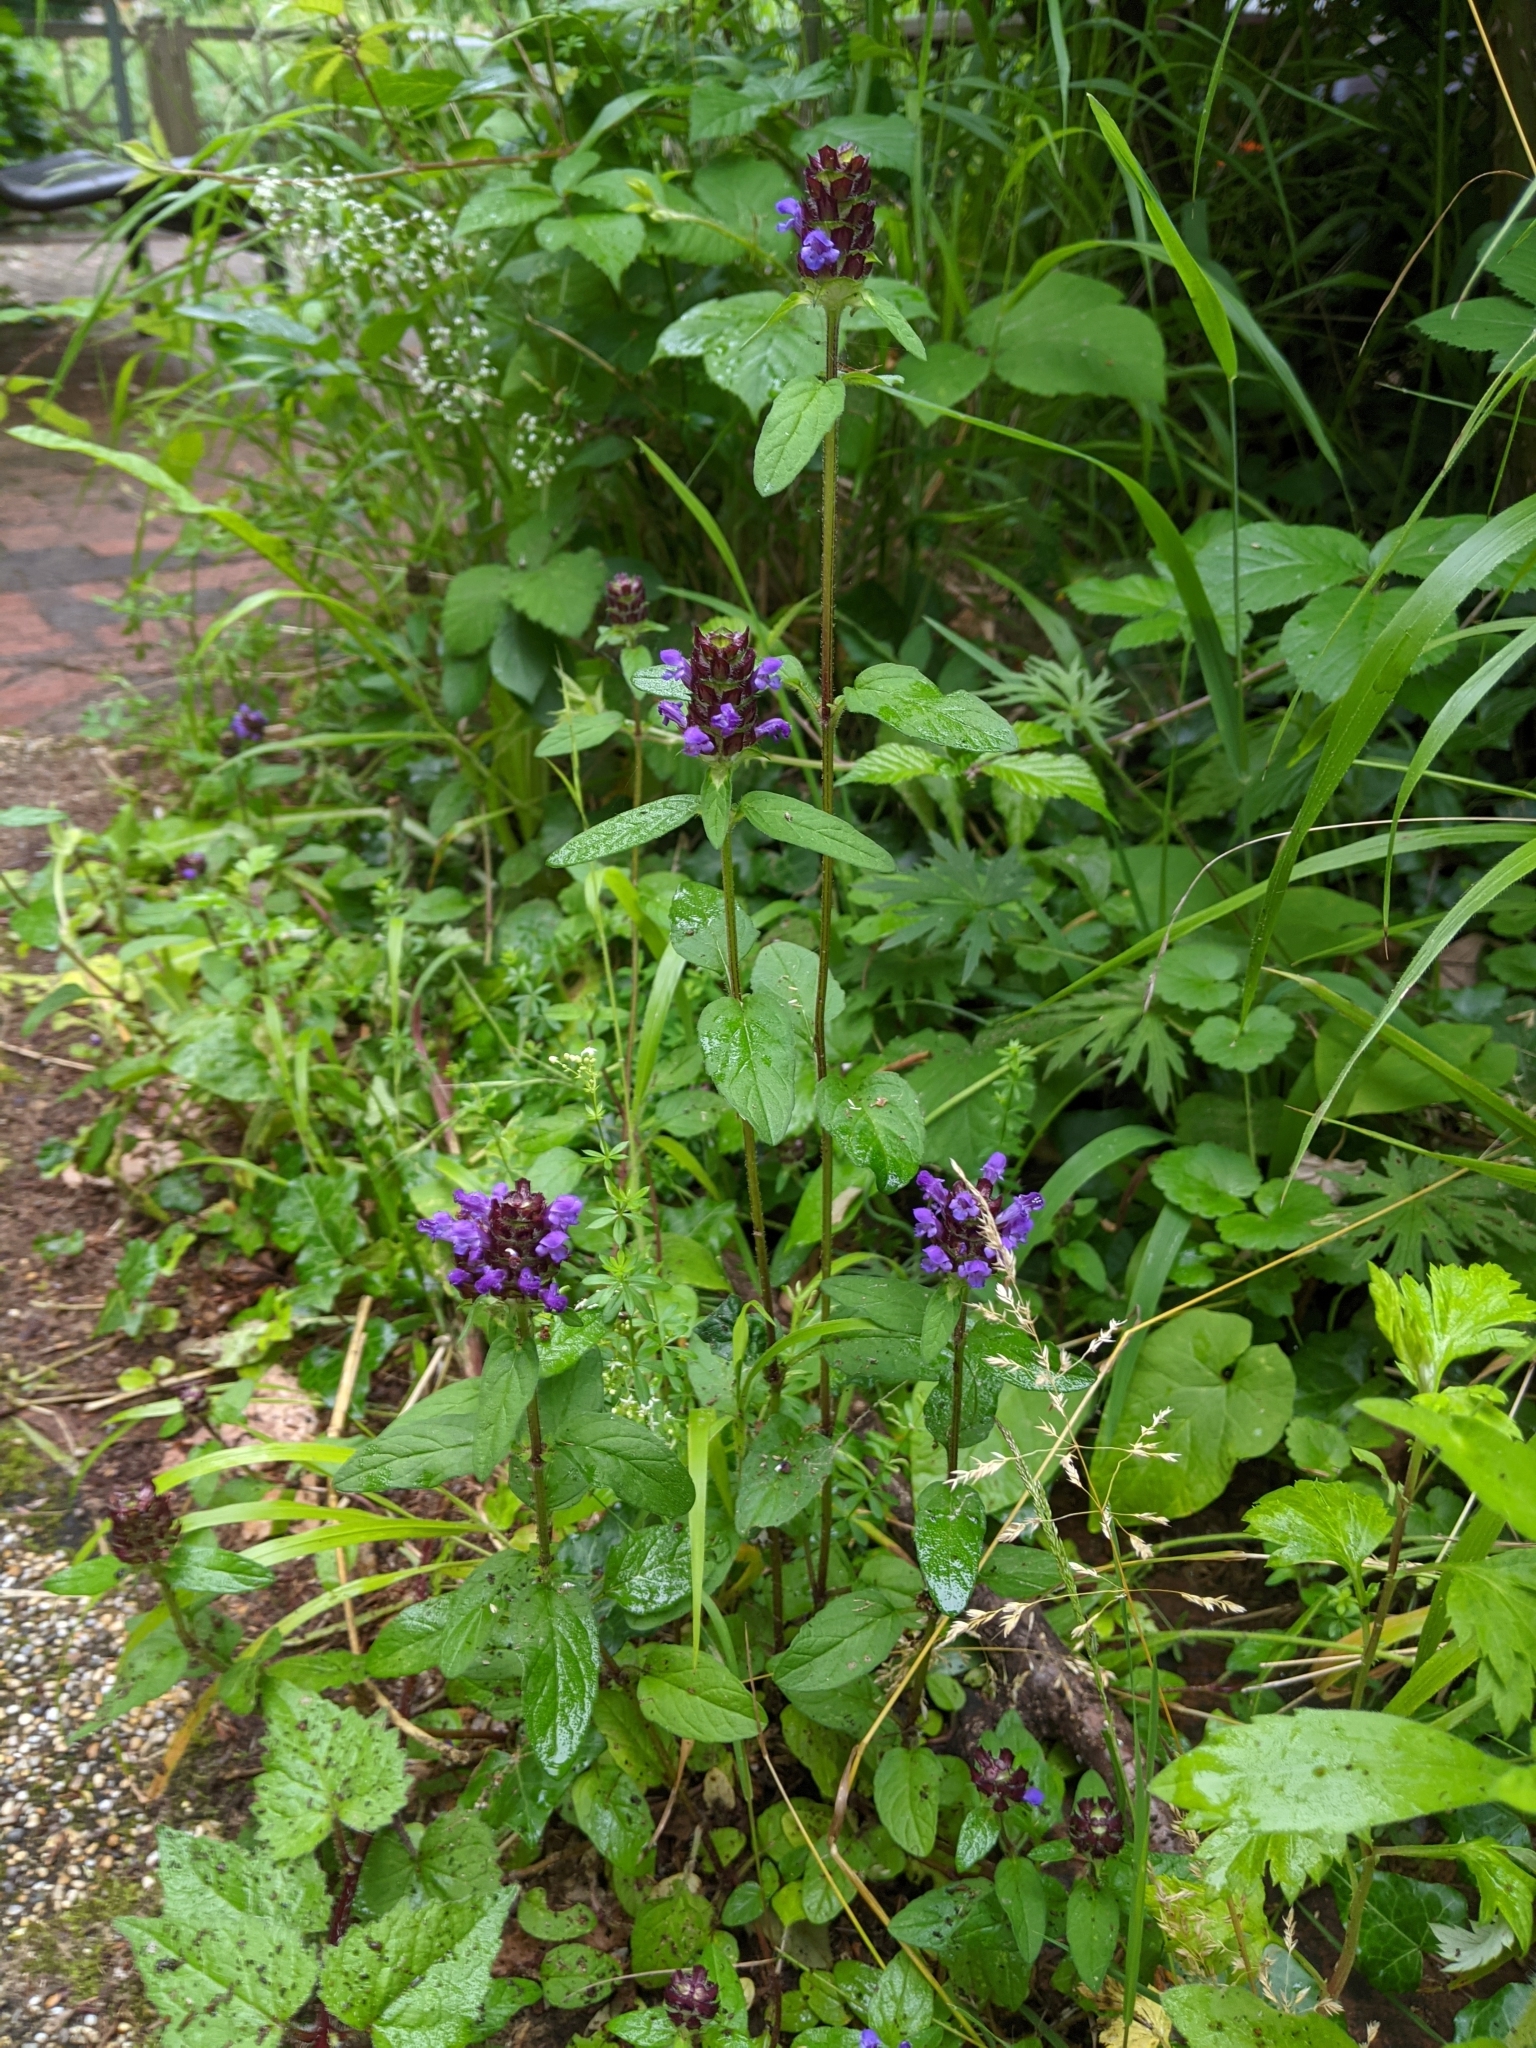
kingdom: Plantae
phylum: Tracheophyta
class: Magnoliopsida
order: Lamiales
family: Lamiaceae
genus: Prunella
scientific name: Prunella vulgaris
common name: Heal-all
